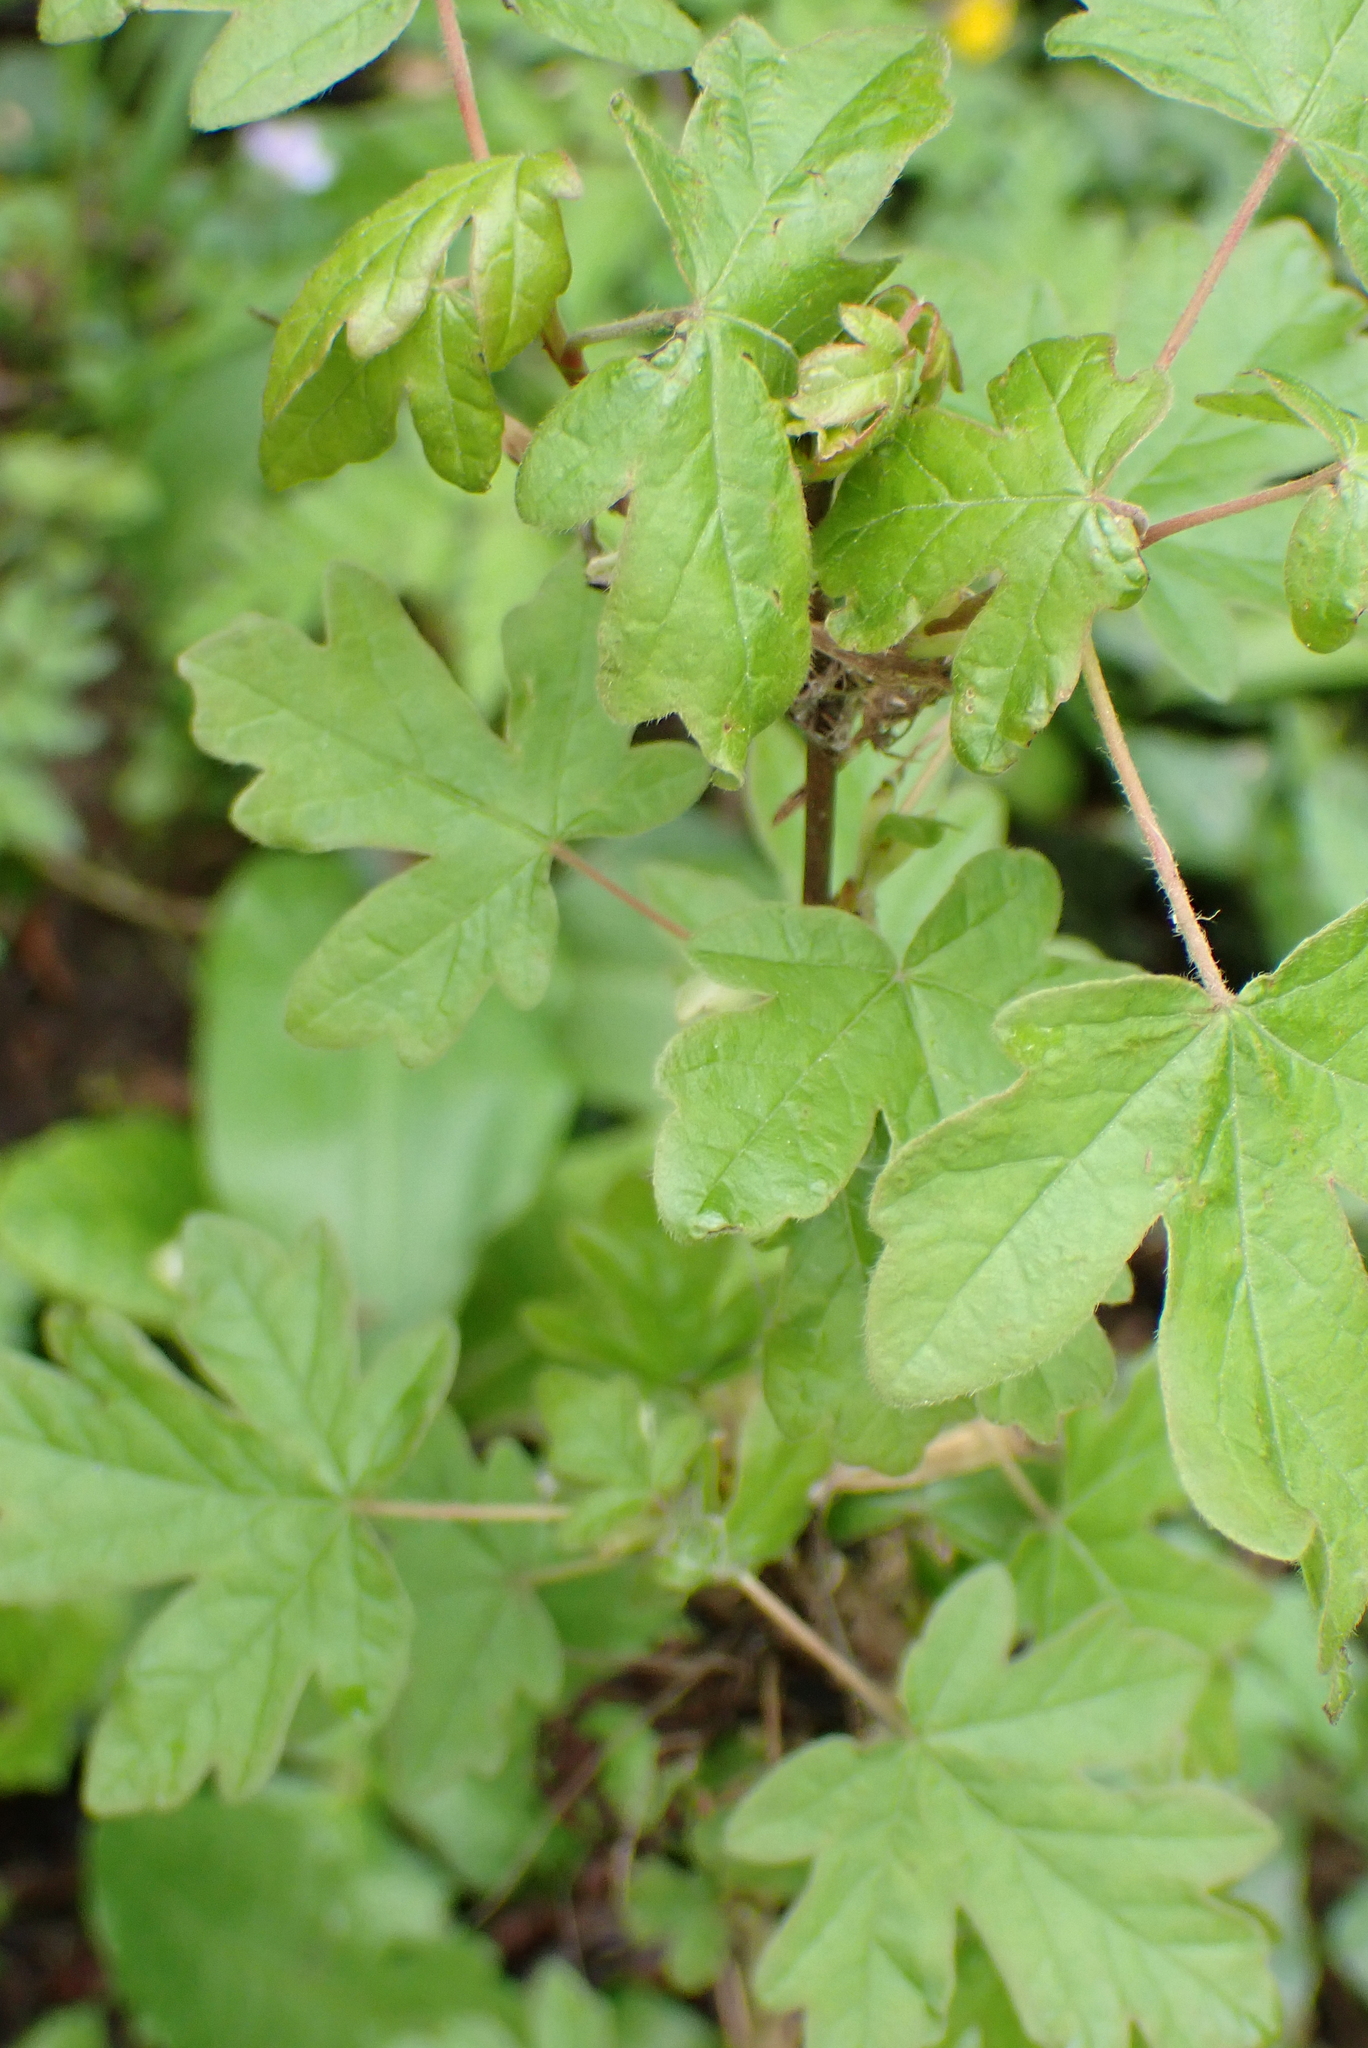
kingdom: Plantae
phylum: Tracheophyta
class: Magnoliopsida
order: Sapindales
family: Sapindaceae
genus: Acer
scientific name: Acer campestre
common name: Field maple
